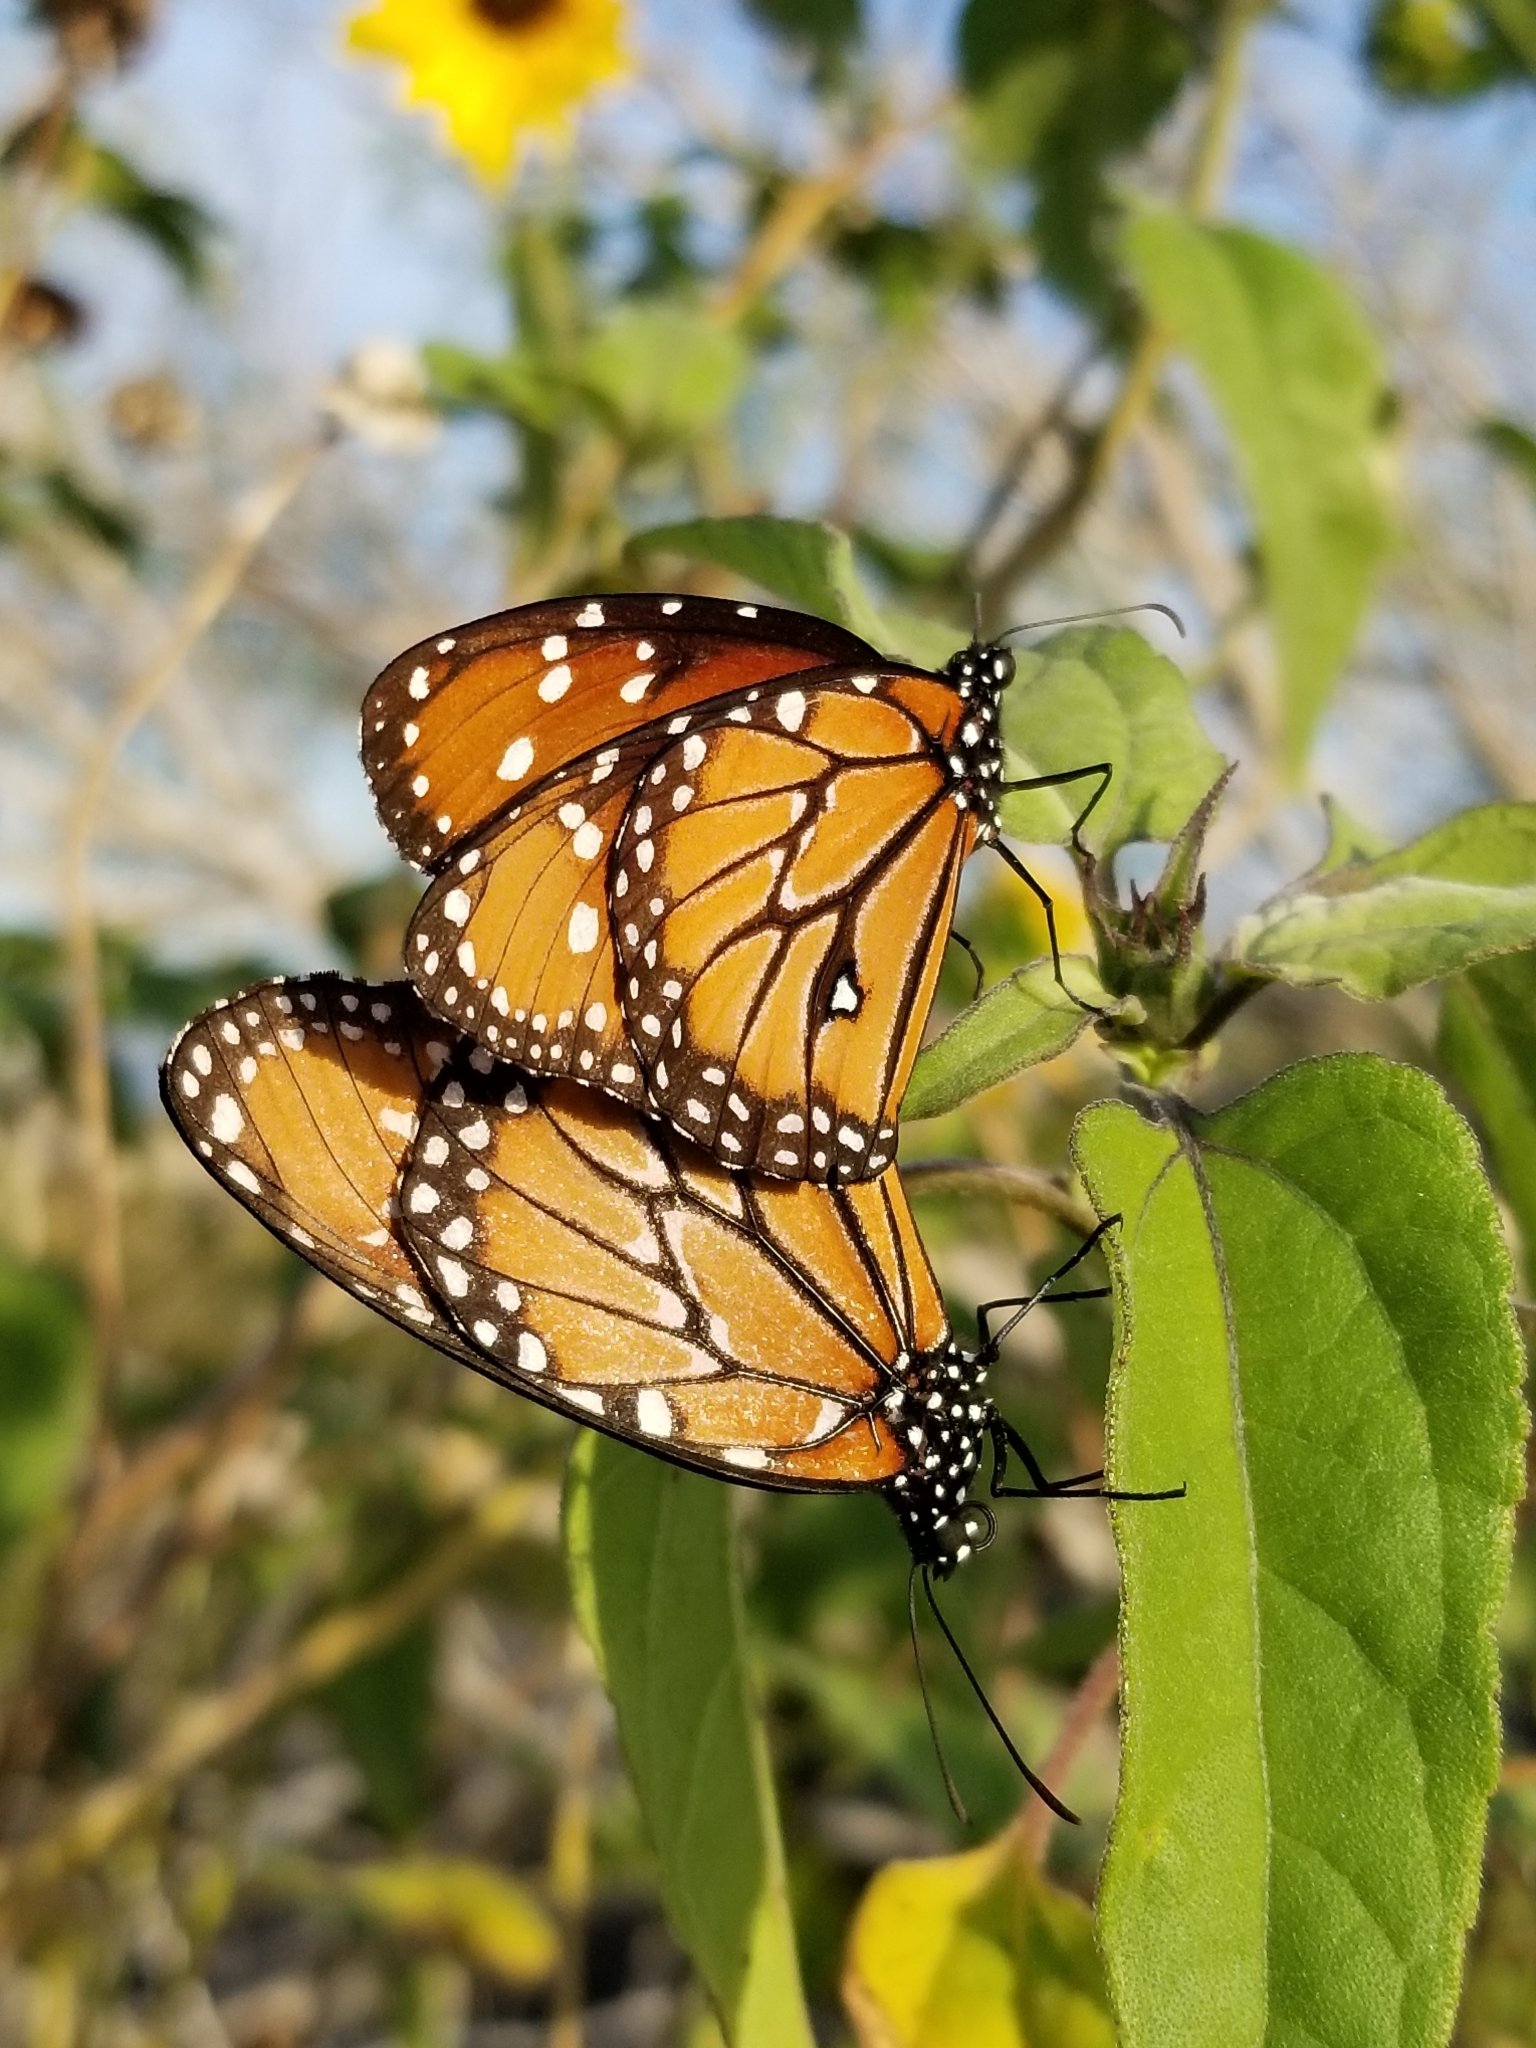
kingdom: Animalia
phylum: Arthropoda
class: Insecta
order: Lepidoptera
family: Nymphalidae
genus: Danaus
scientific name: Danaus gilippus
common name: Queen
